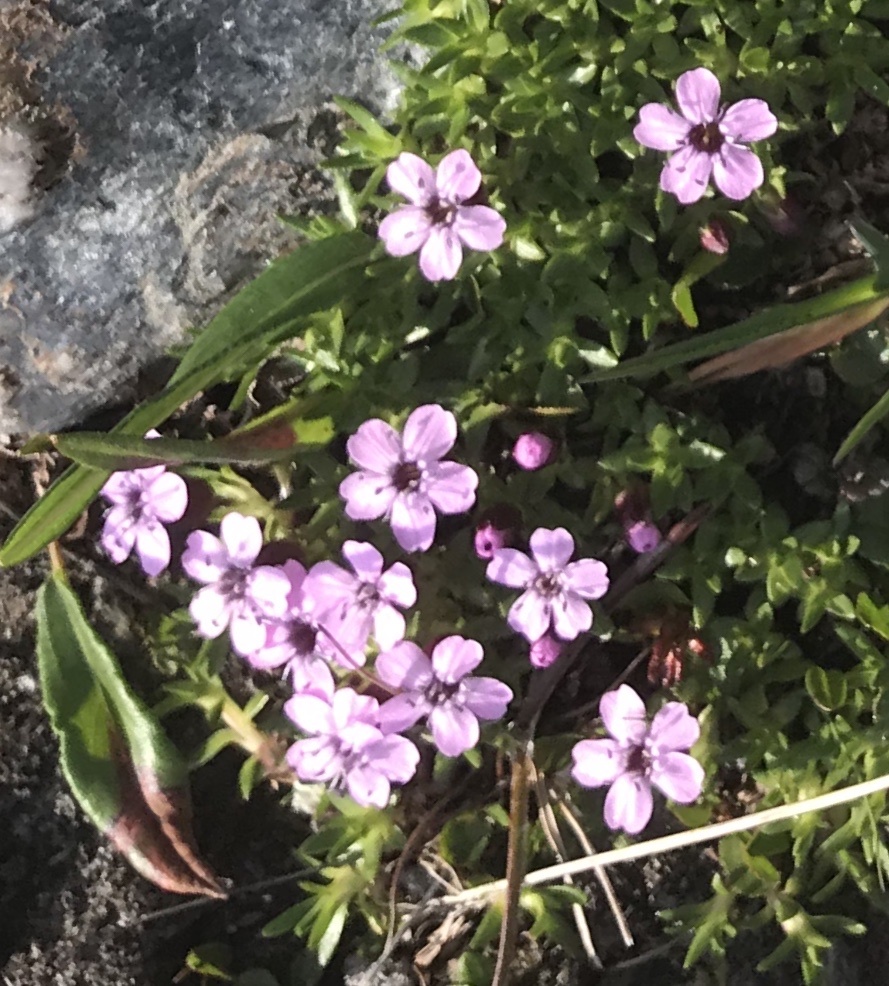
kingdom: Plantae
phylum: Tracheophyta
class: Magnoliopsida
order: Caryophyllales
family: Caryophyllaceae
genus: Silene
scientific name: Silene acaulis
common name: Moss campion
